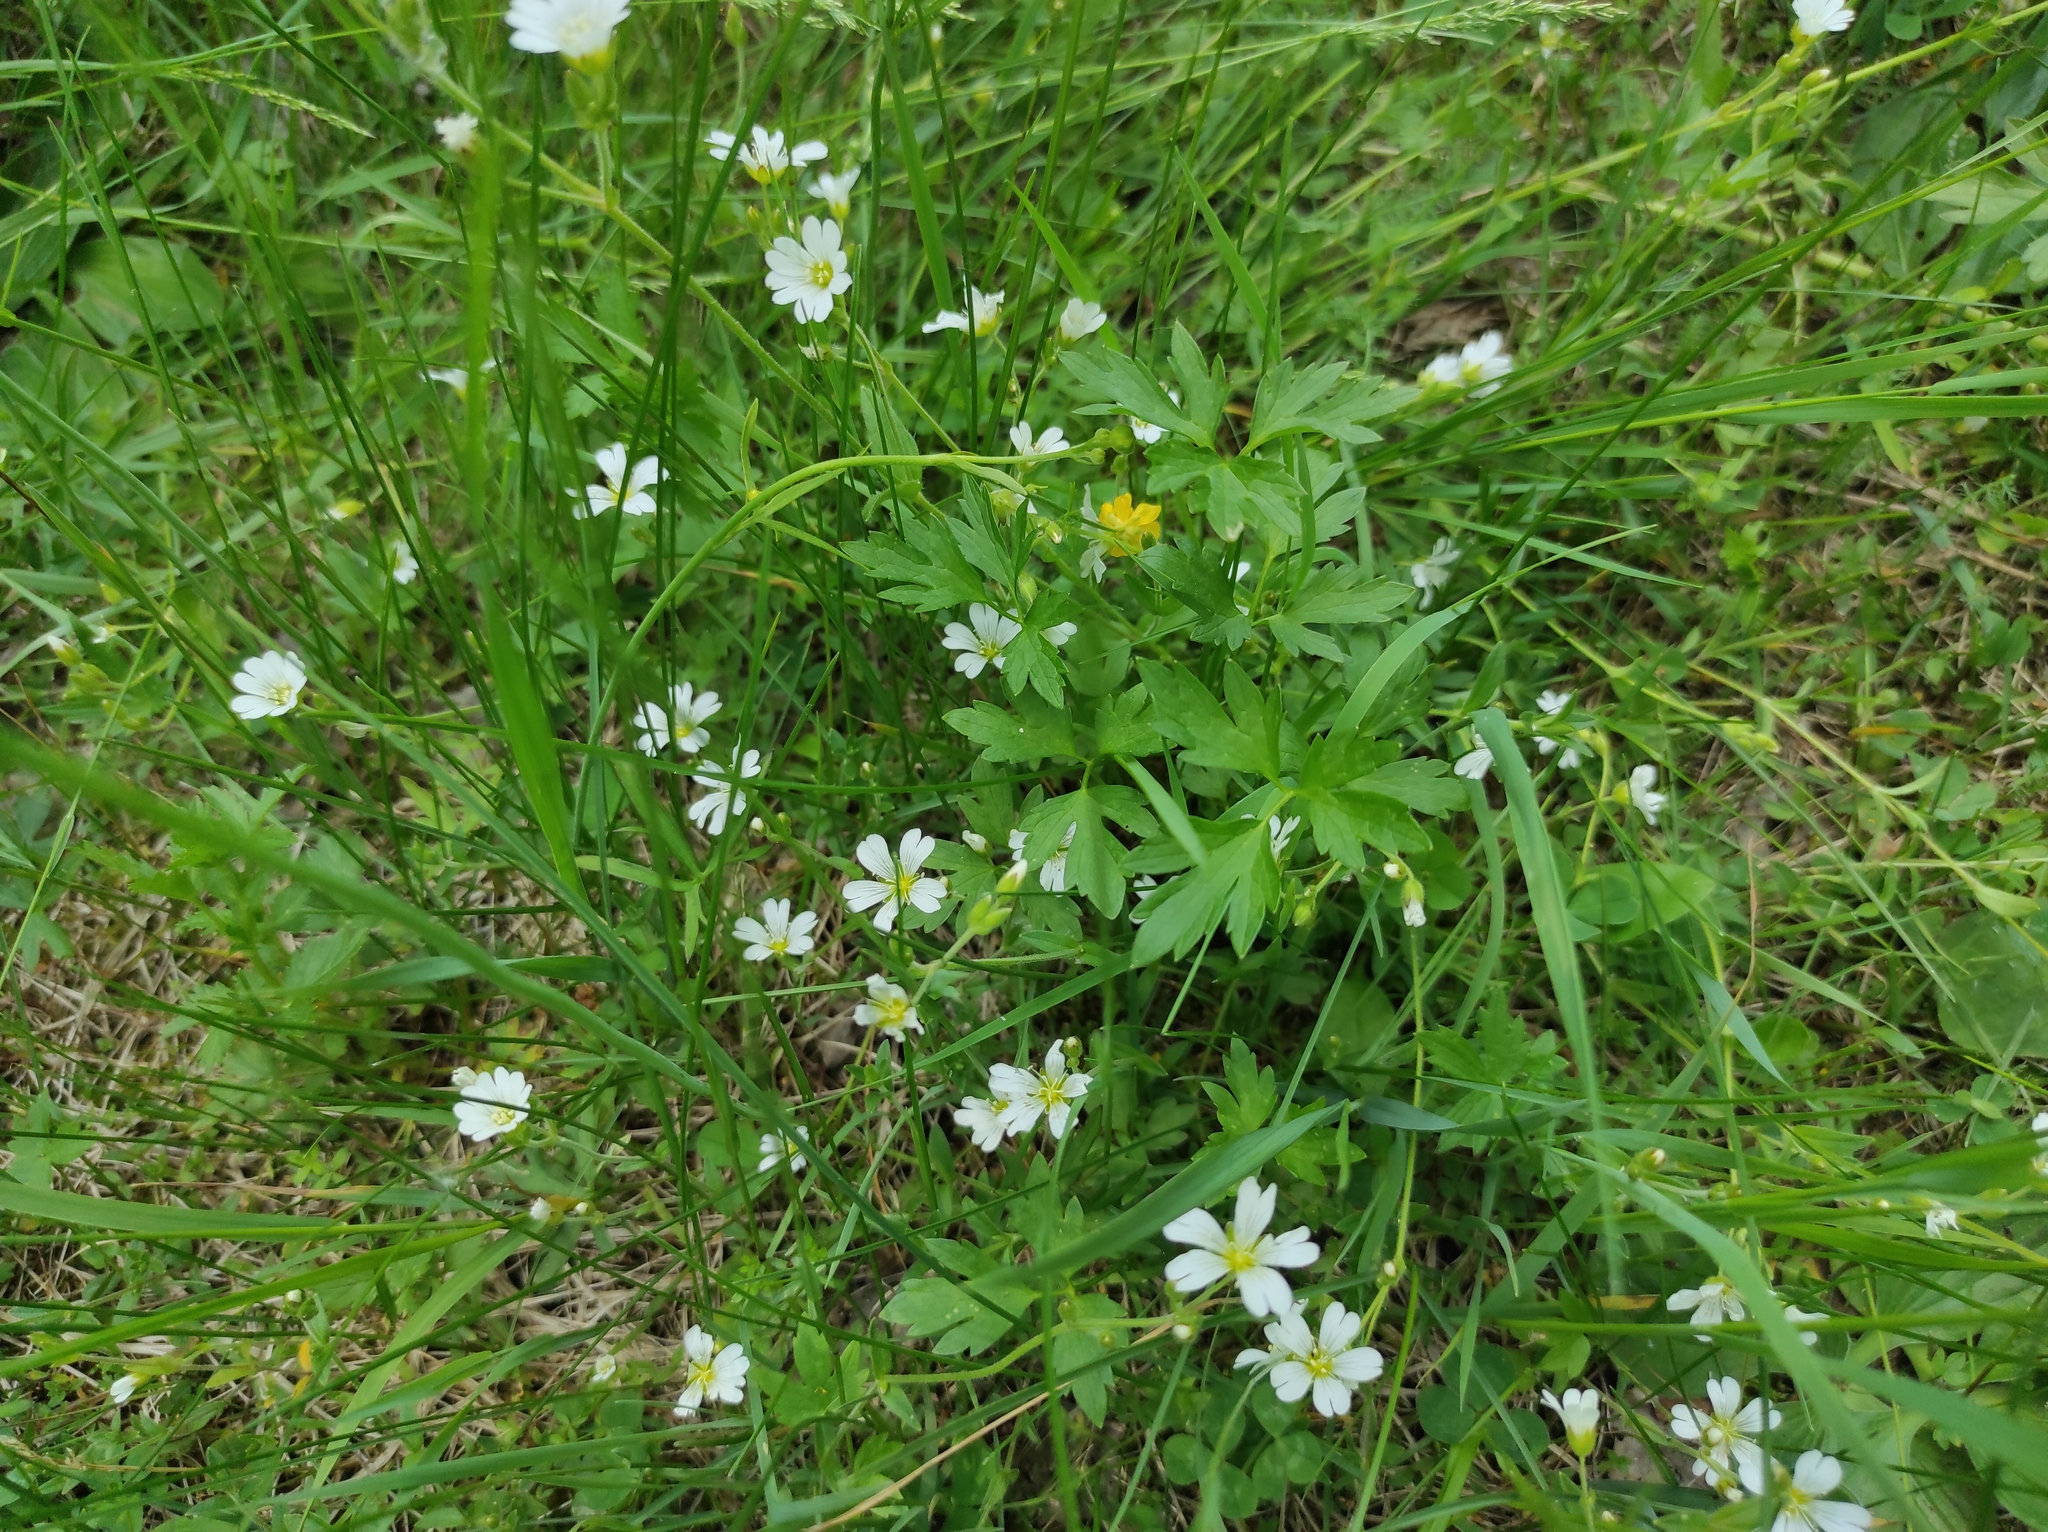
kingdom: Plantae
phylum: Tracheophyta
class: Magnoliopsida
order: Ranunculales
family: Ranunculaceae
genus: Ranunculus
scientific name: Ranunculus repens
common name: Creeping buttercup
